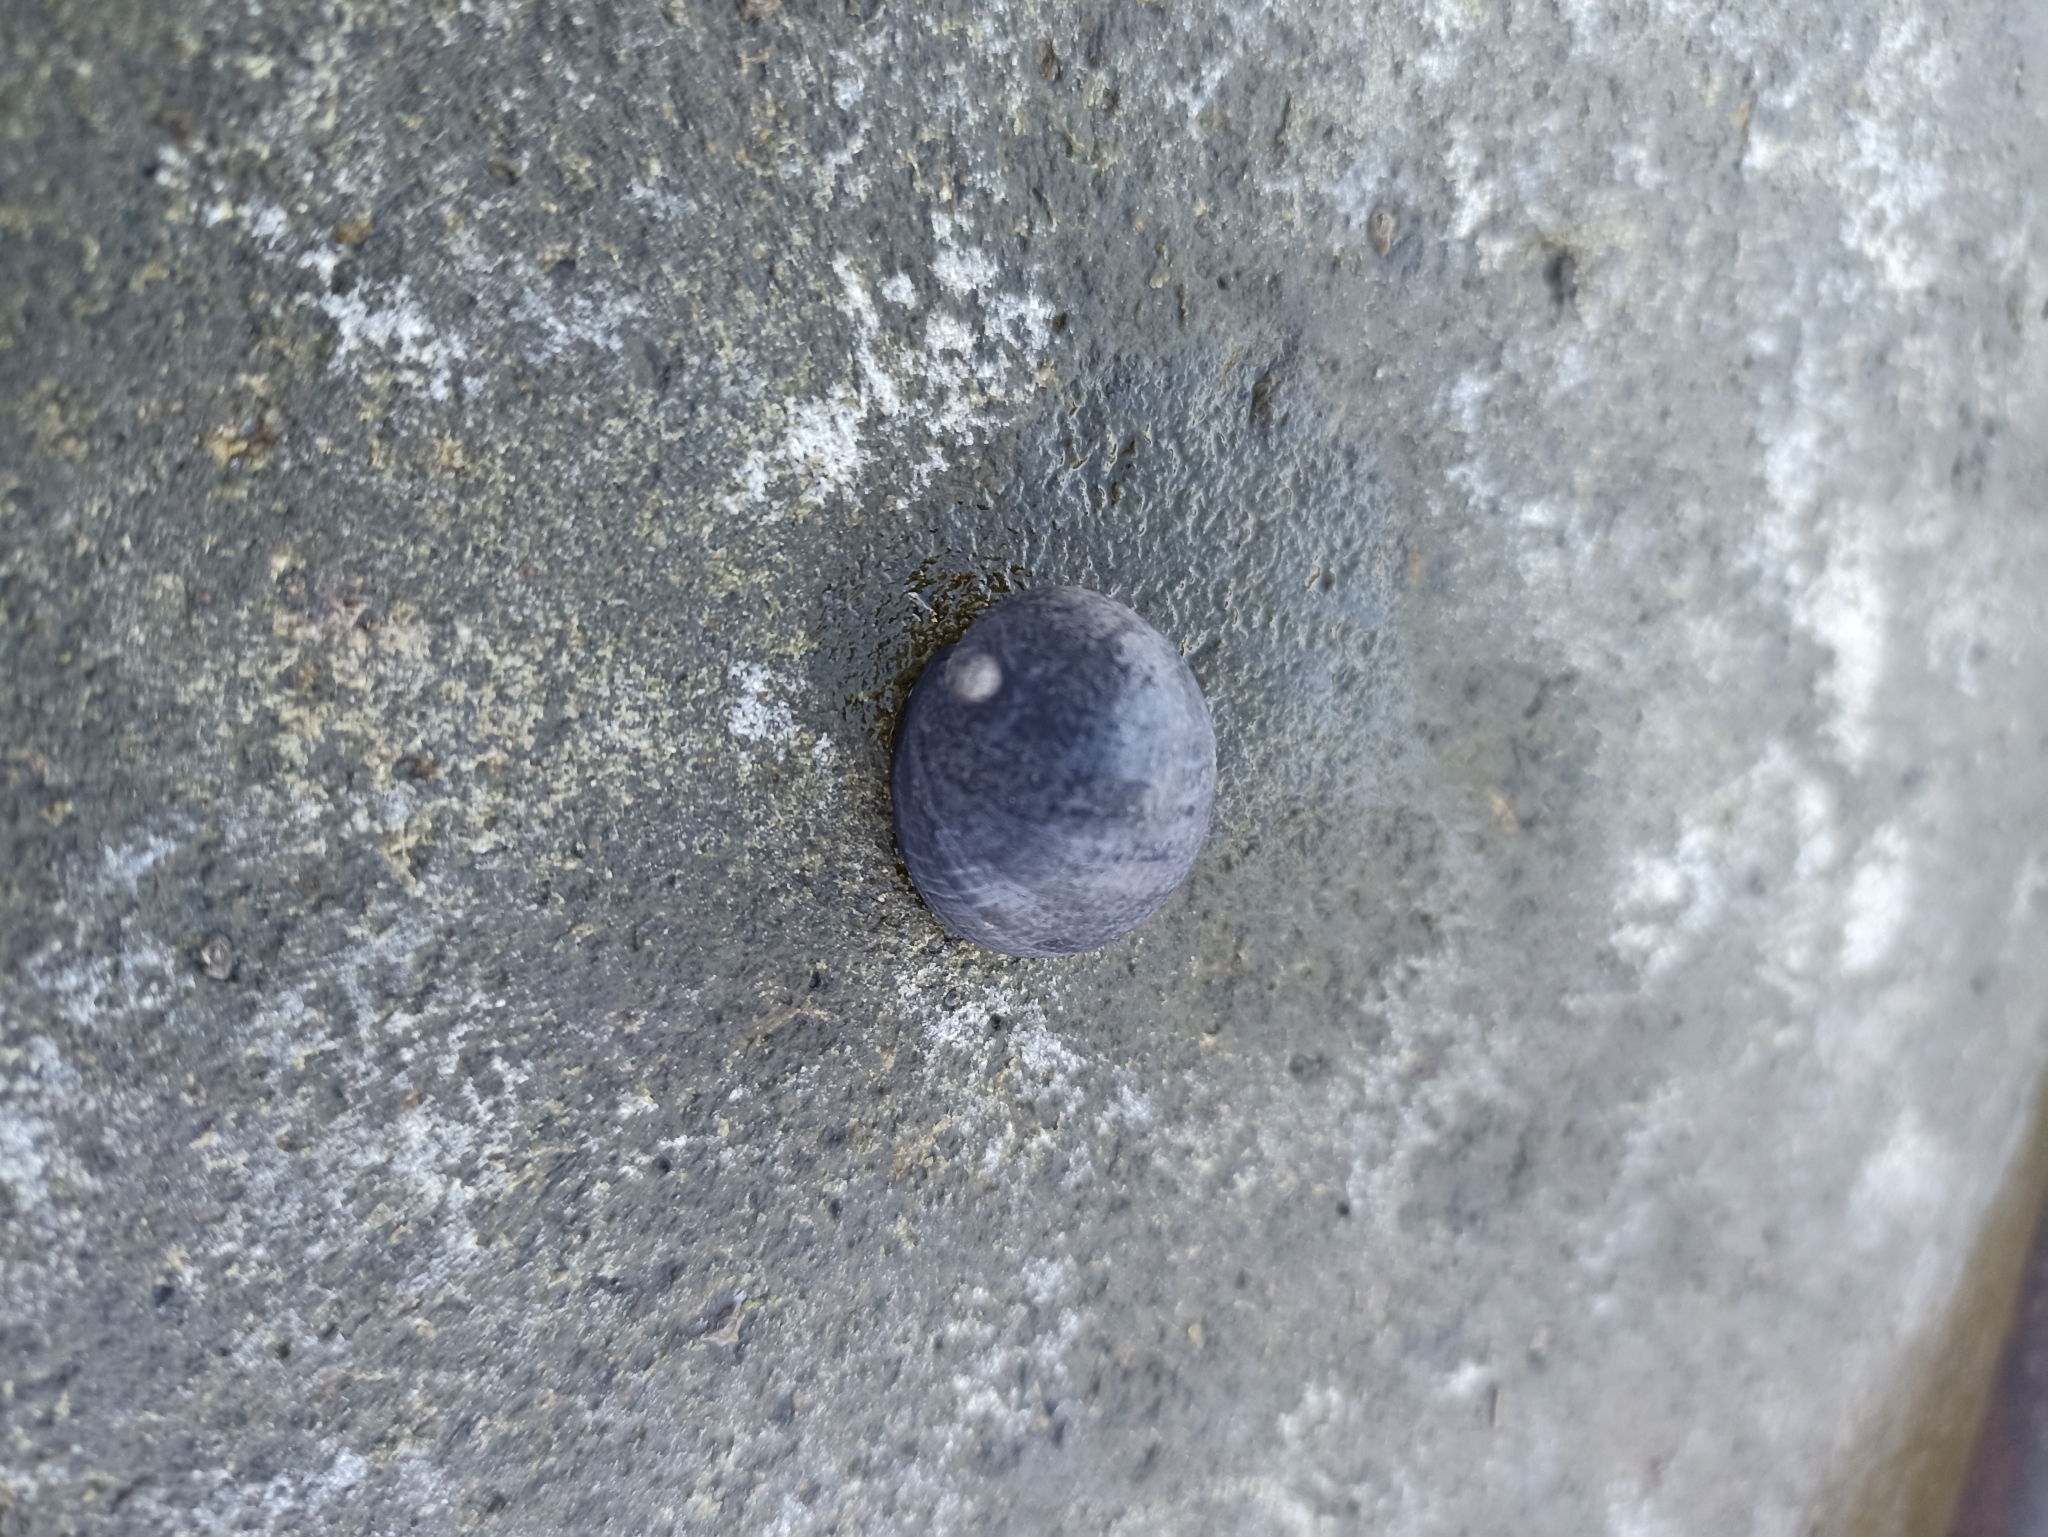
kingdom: Animalia
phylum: Mollusca
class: Gastropoda
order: Cycloneritida
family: Neritidae
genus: Nerita
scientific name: Nerita melanotragus
